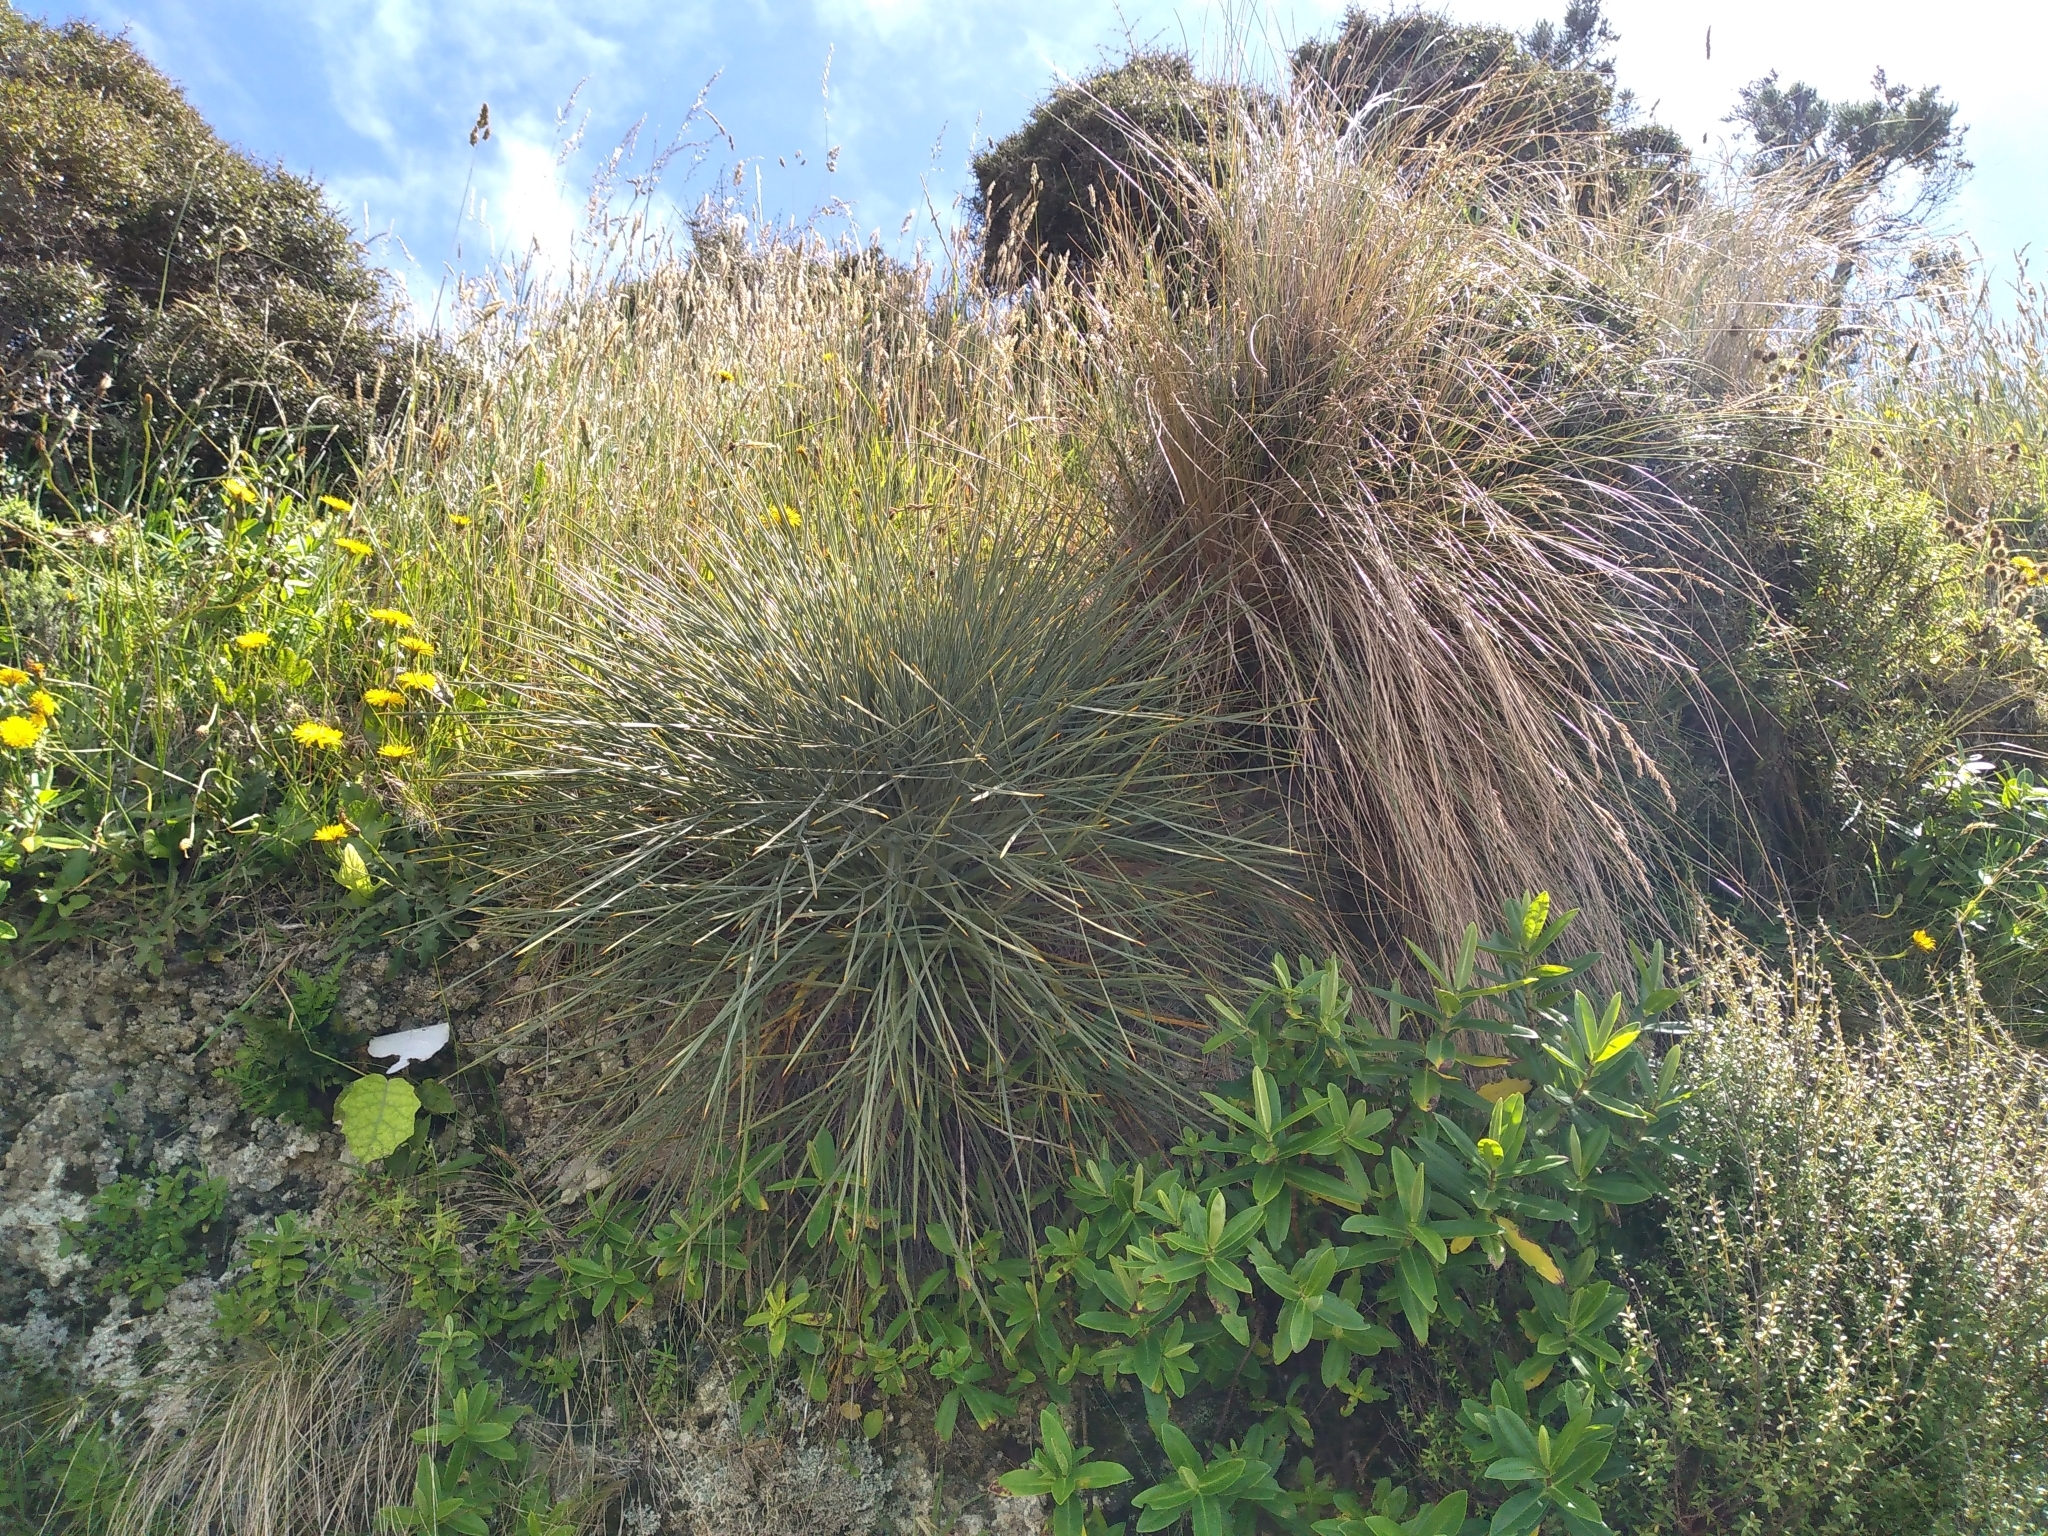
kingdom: Plantae
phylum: Tracheophyta
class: Magnoliopsida
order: Apiales
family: Apiaceae
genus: Aciphylla
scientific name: Aciphylla squarrosa
